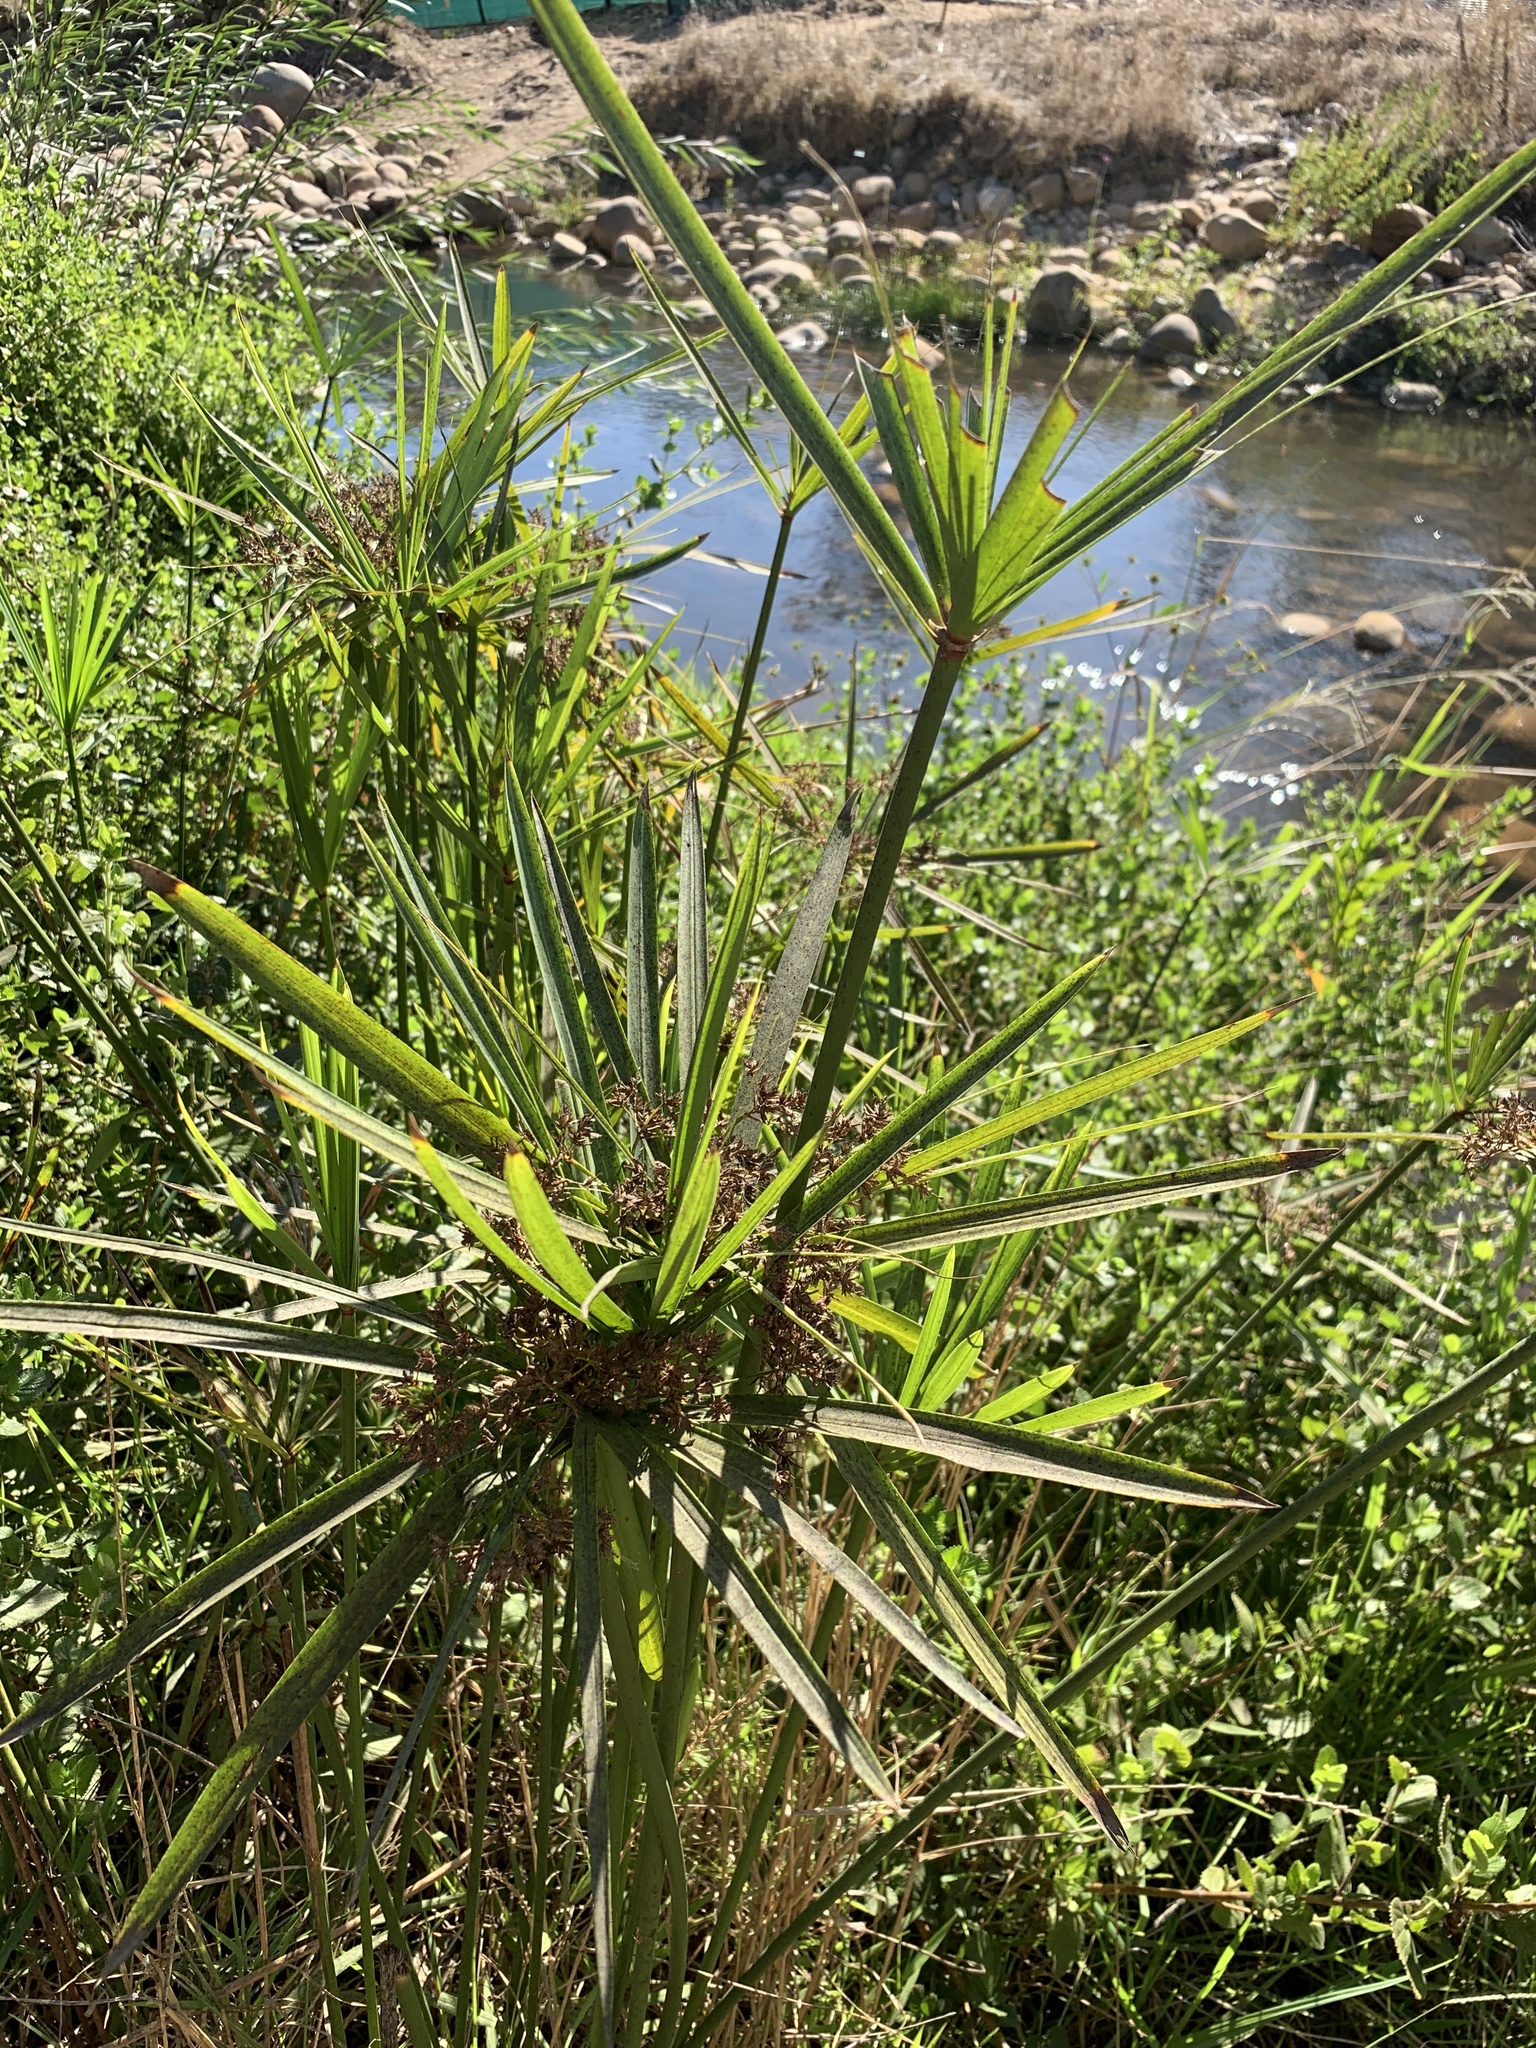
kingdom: Plantae
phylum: Tracheophyta
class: Liliopsida
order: Poales
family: Cyperaceae
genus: Cyperus
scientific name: Cyperus textilis
